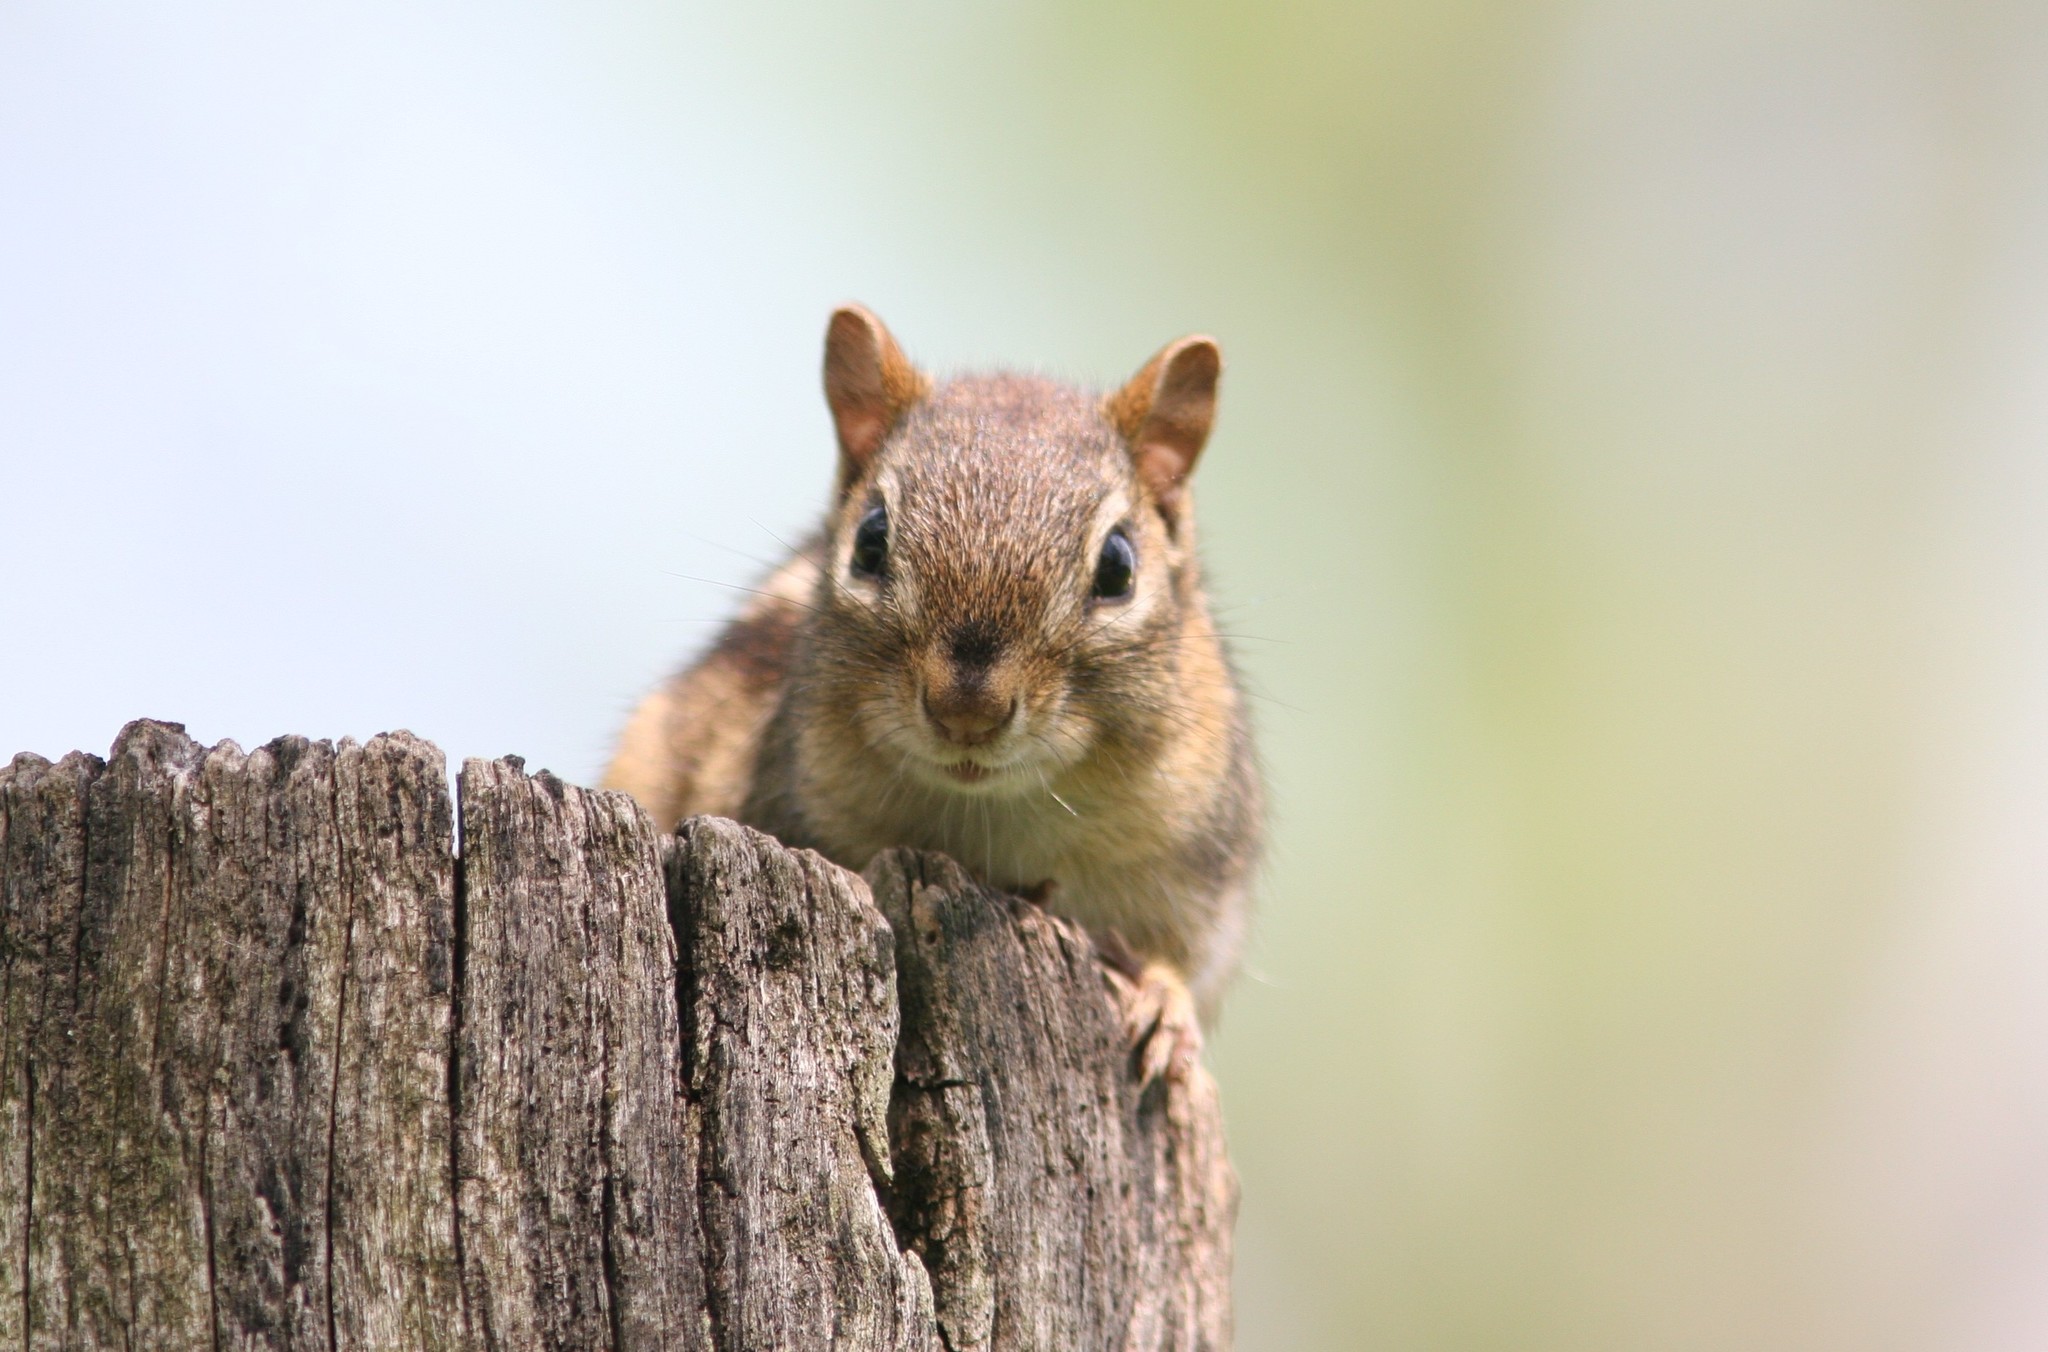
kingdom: Animalia
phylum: Chordata
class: Mammalia
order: Rodentia
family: Sciuridae
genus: Tamias
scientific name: Tamias striatus
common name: Eastern chipmunk
